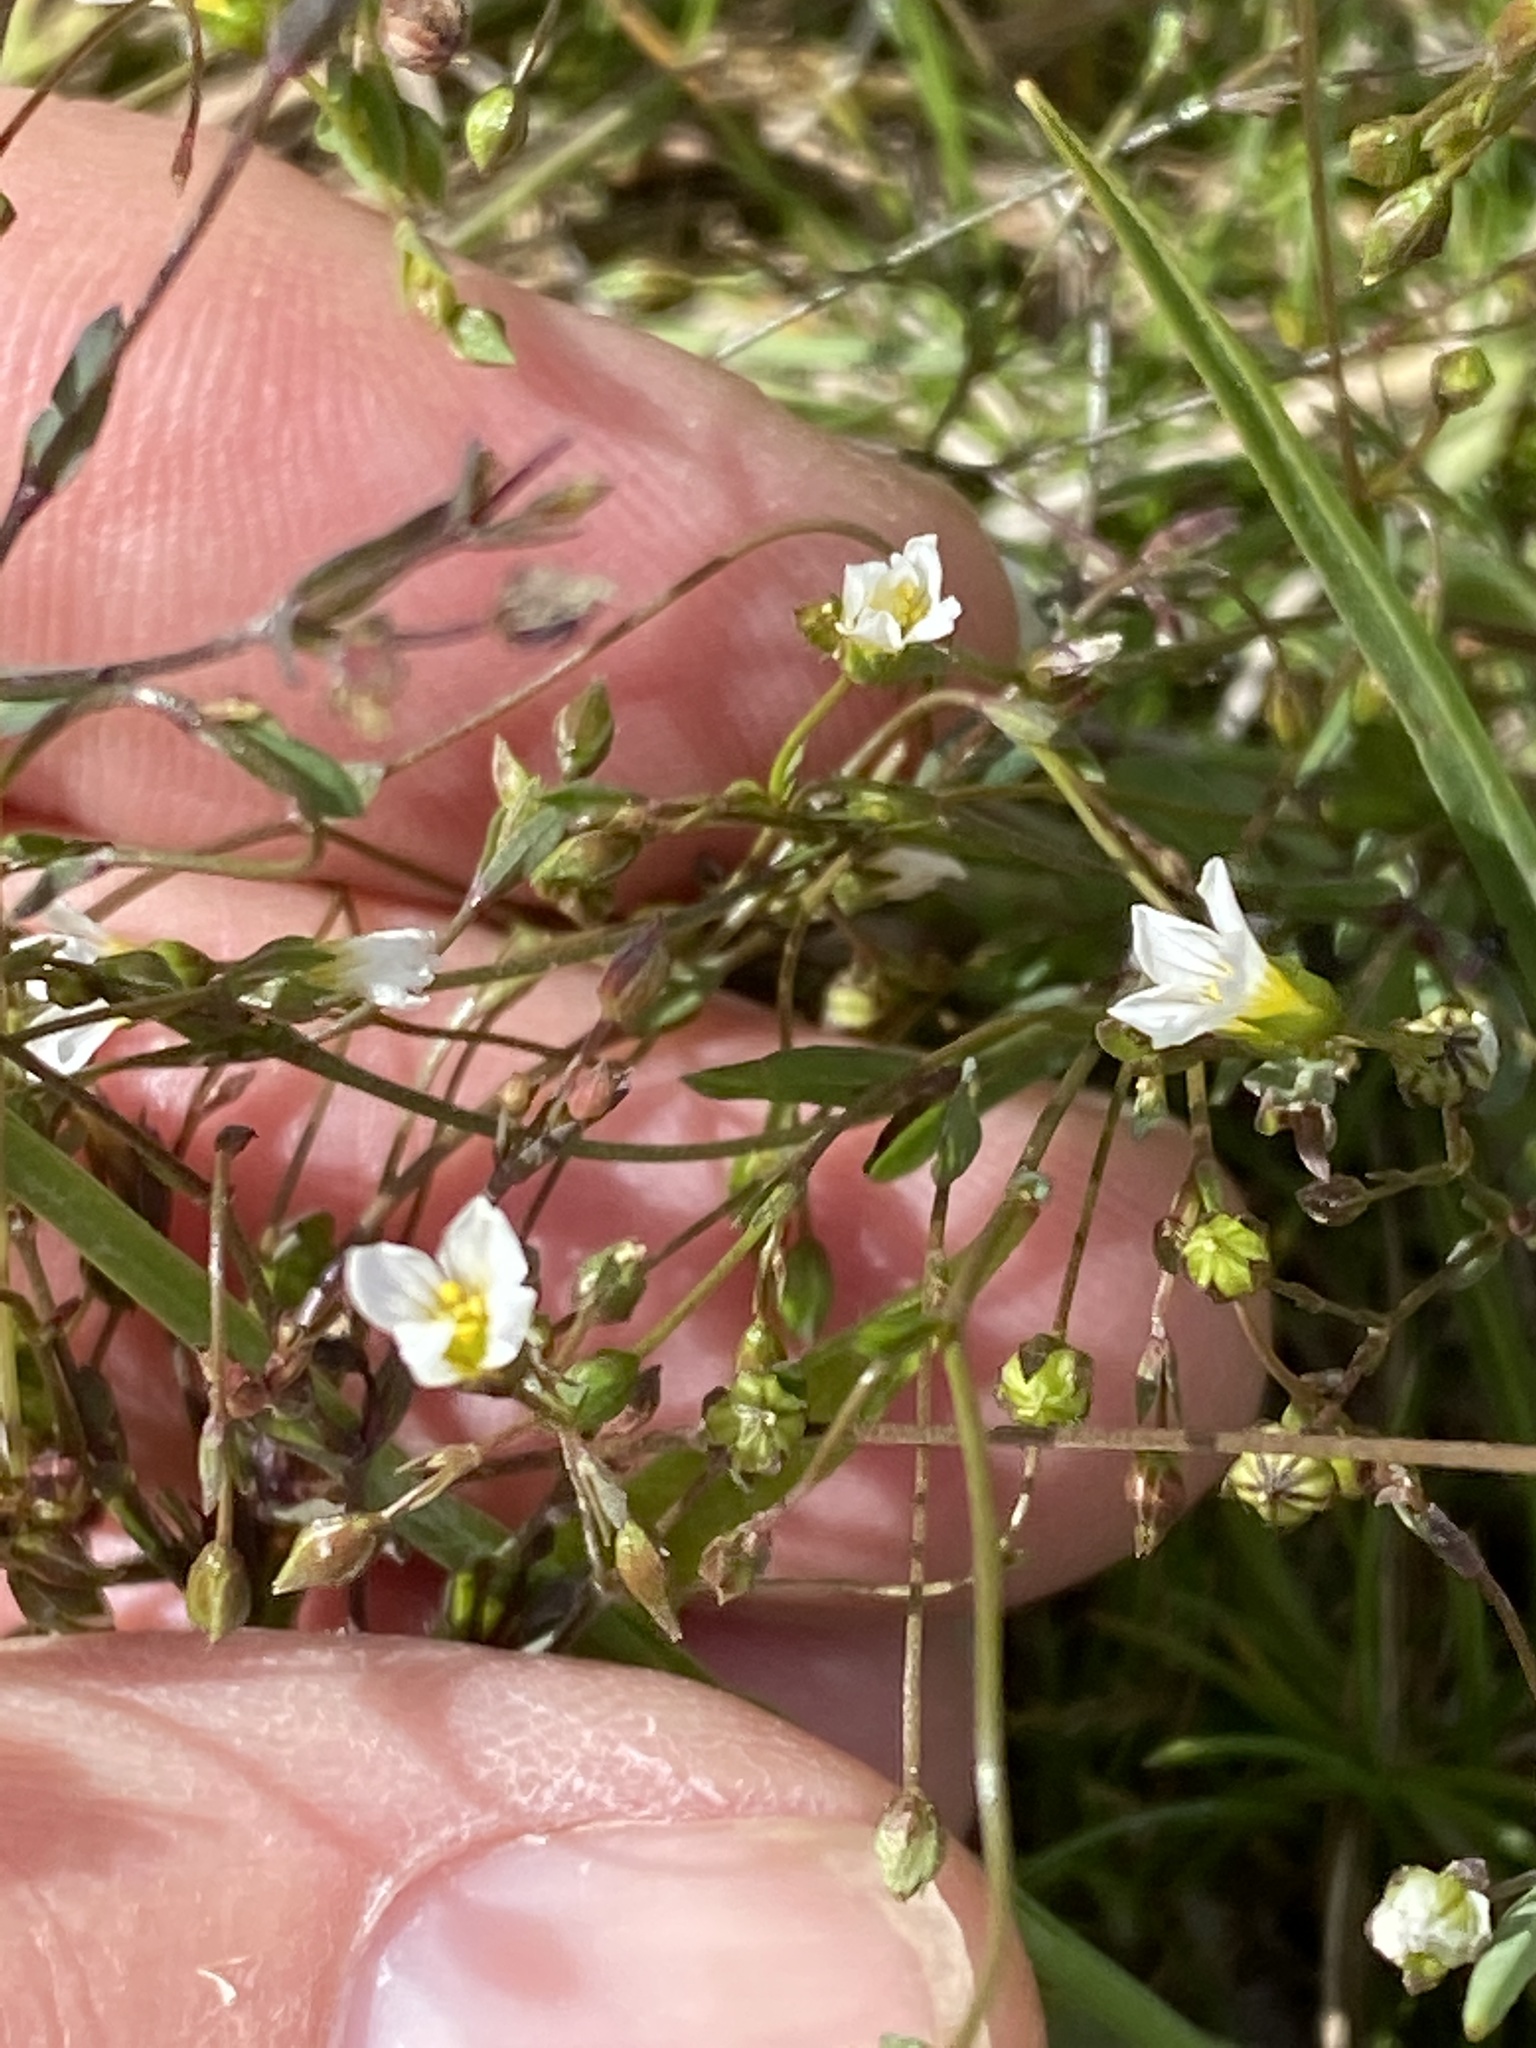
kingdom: Plantae
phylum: Tracheophyta
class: Magnoliopsida
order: Malpighiales
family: Linaceae
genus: Linum
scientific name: Linum catharticum
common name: Fairy flax
